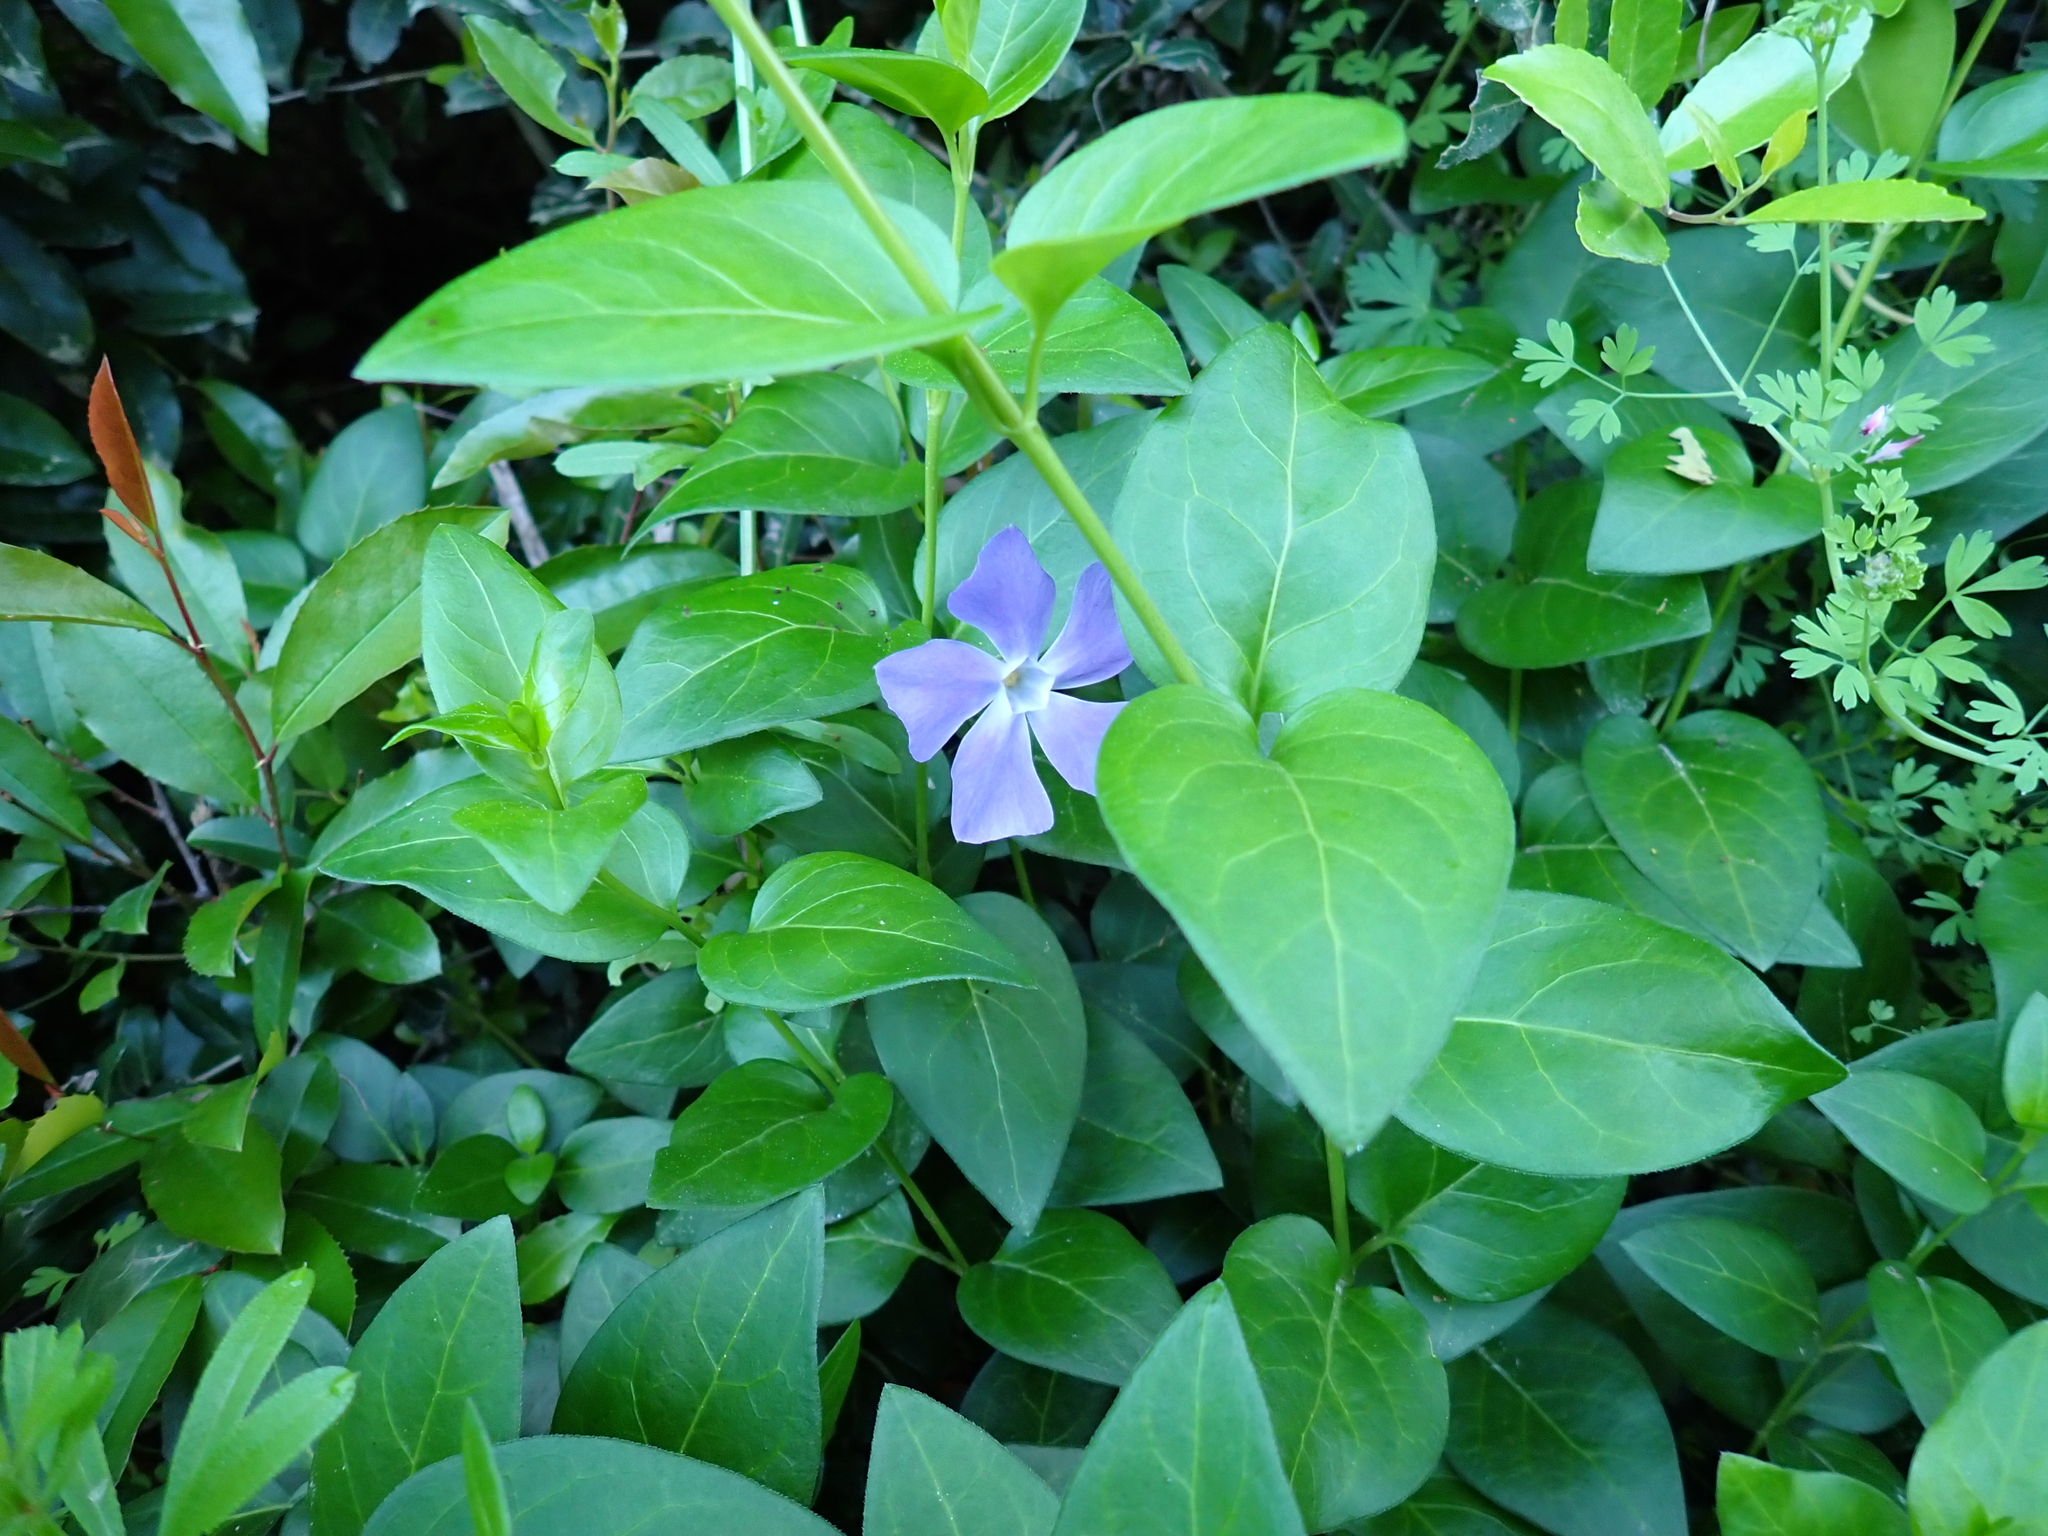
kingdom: Plantae
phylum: Tracheophyta
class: Magnoliopsida
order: Gentianales
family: Apocynaceae
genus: Vinca
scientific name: Vinca major
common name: Greater periwinkle
